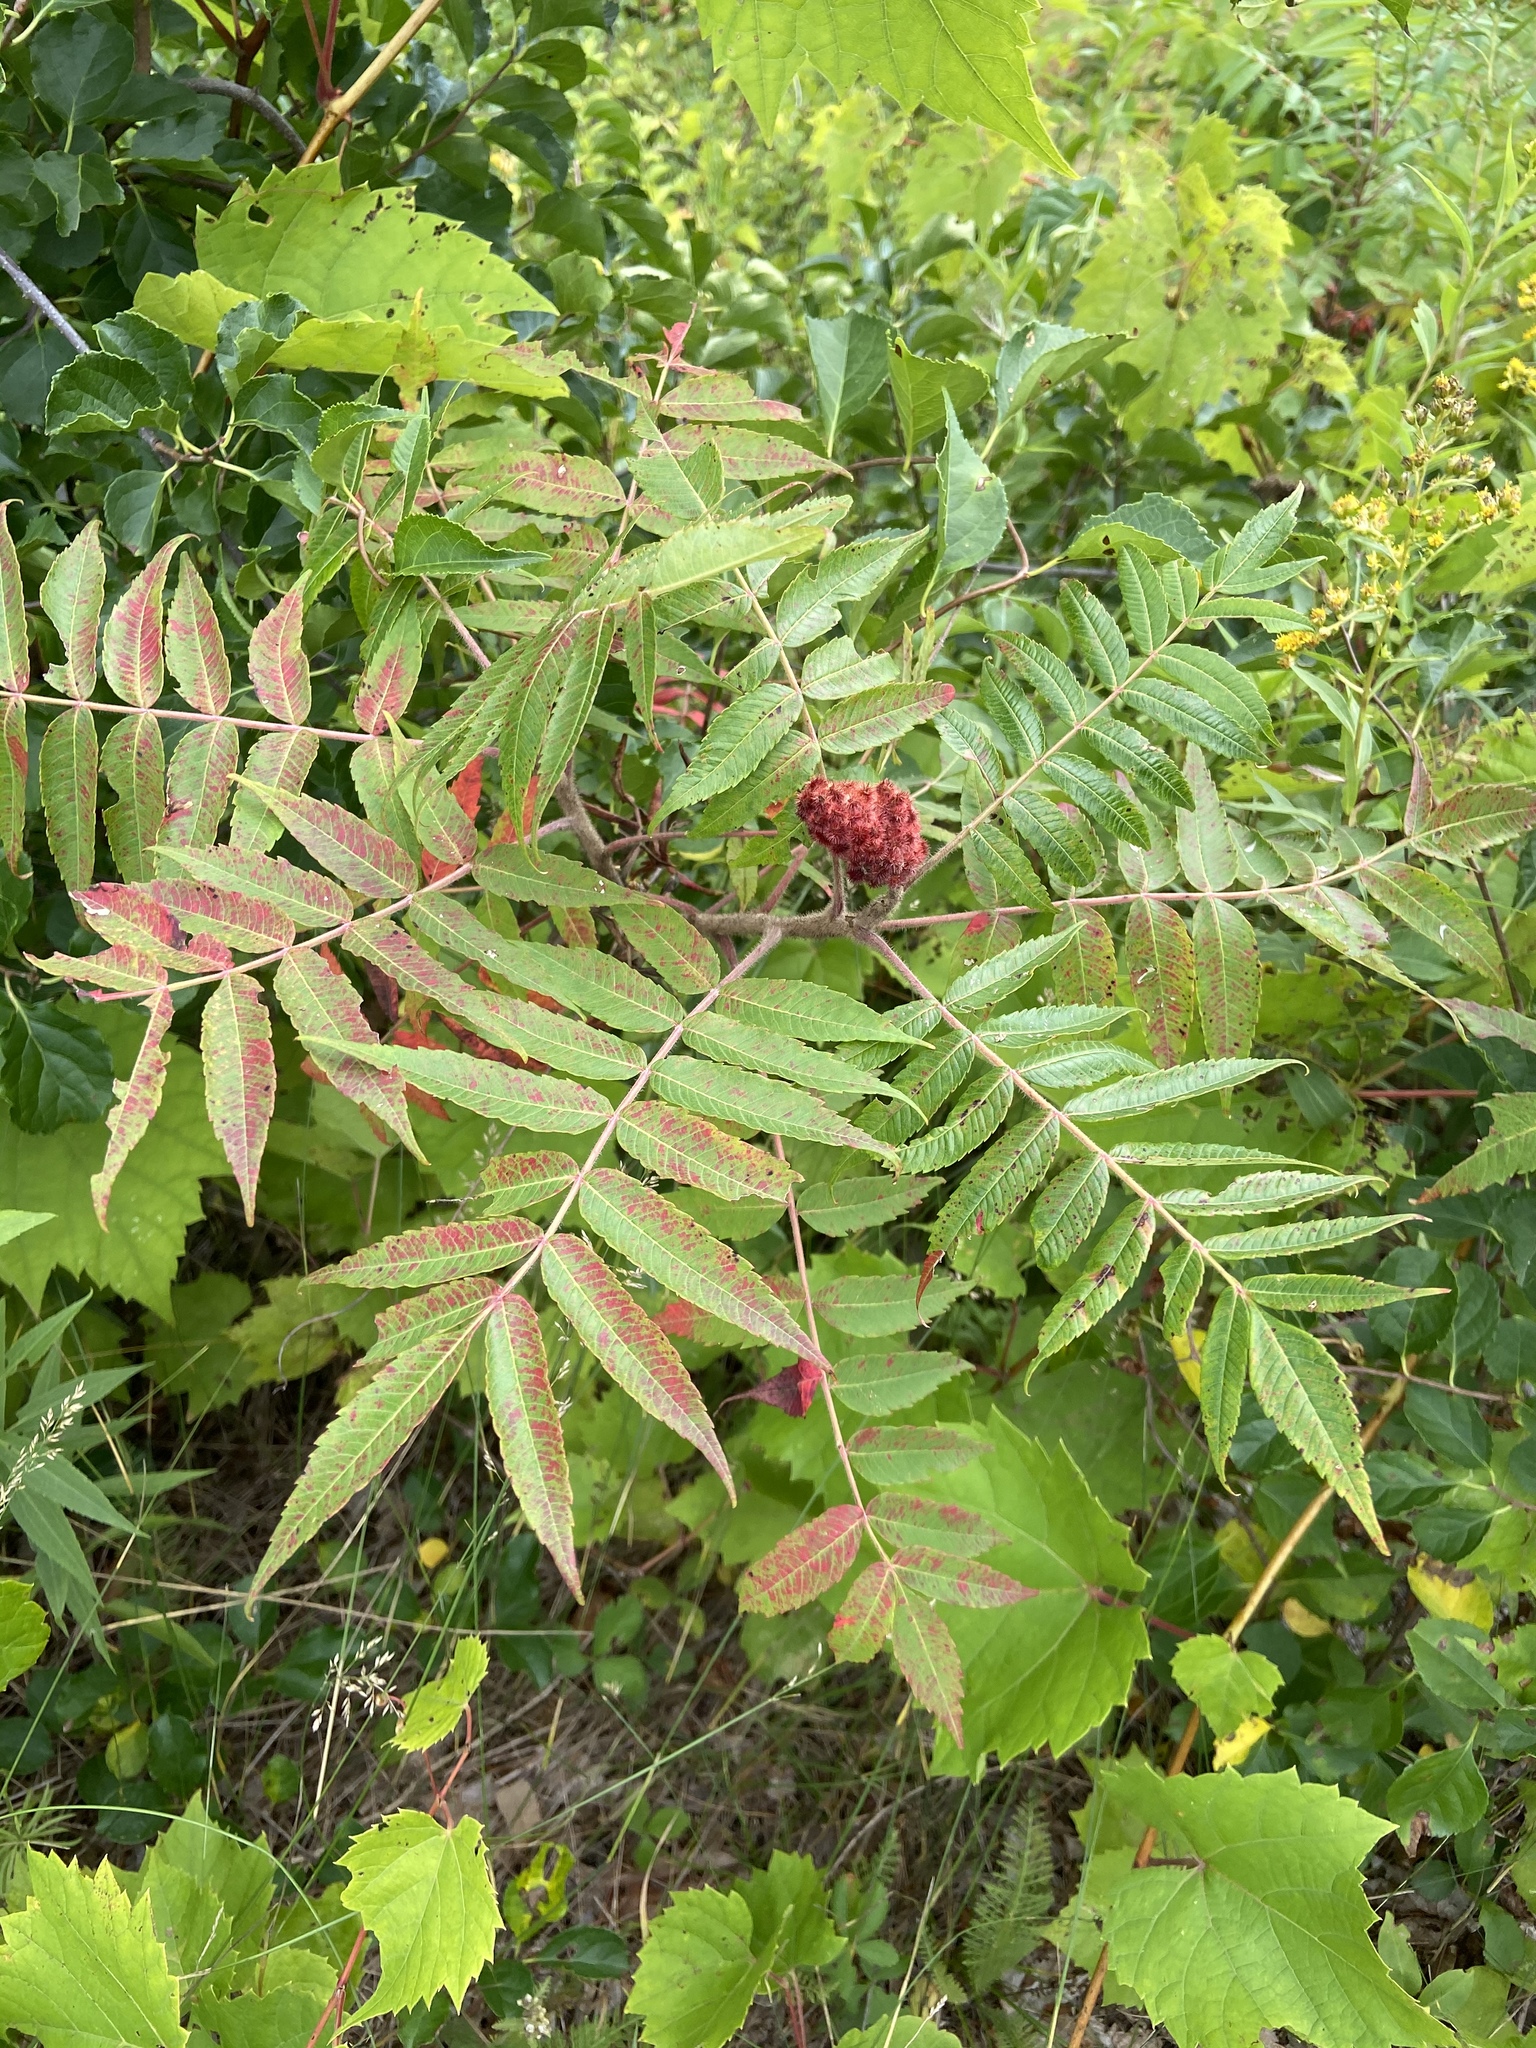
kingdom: Plantae
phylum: Tracheophyta
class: Magnoliopsida
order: Sapindales
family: Anacardiaceae
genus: Rhus
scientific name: Rhus typhina
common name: Staghorn sumac
